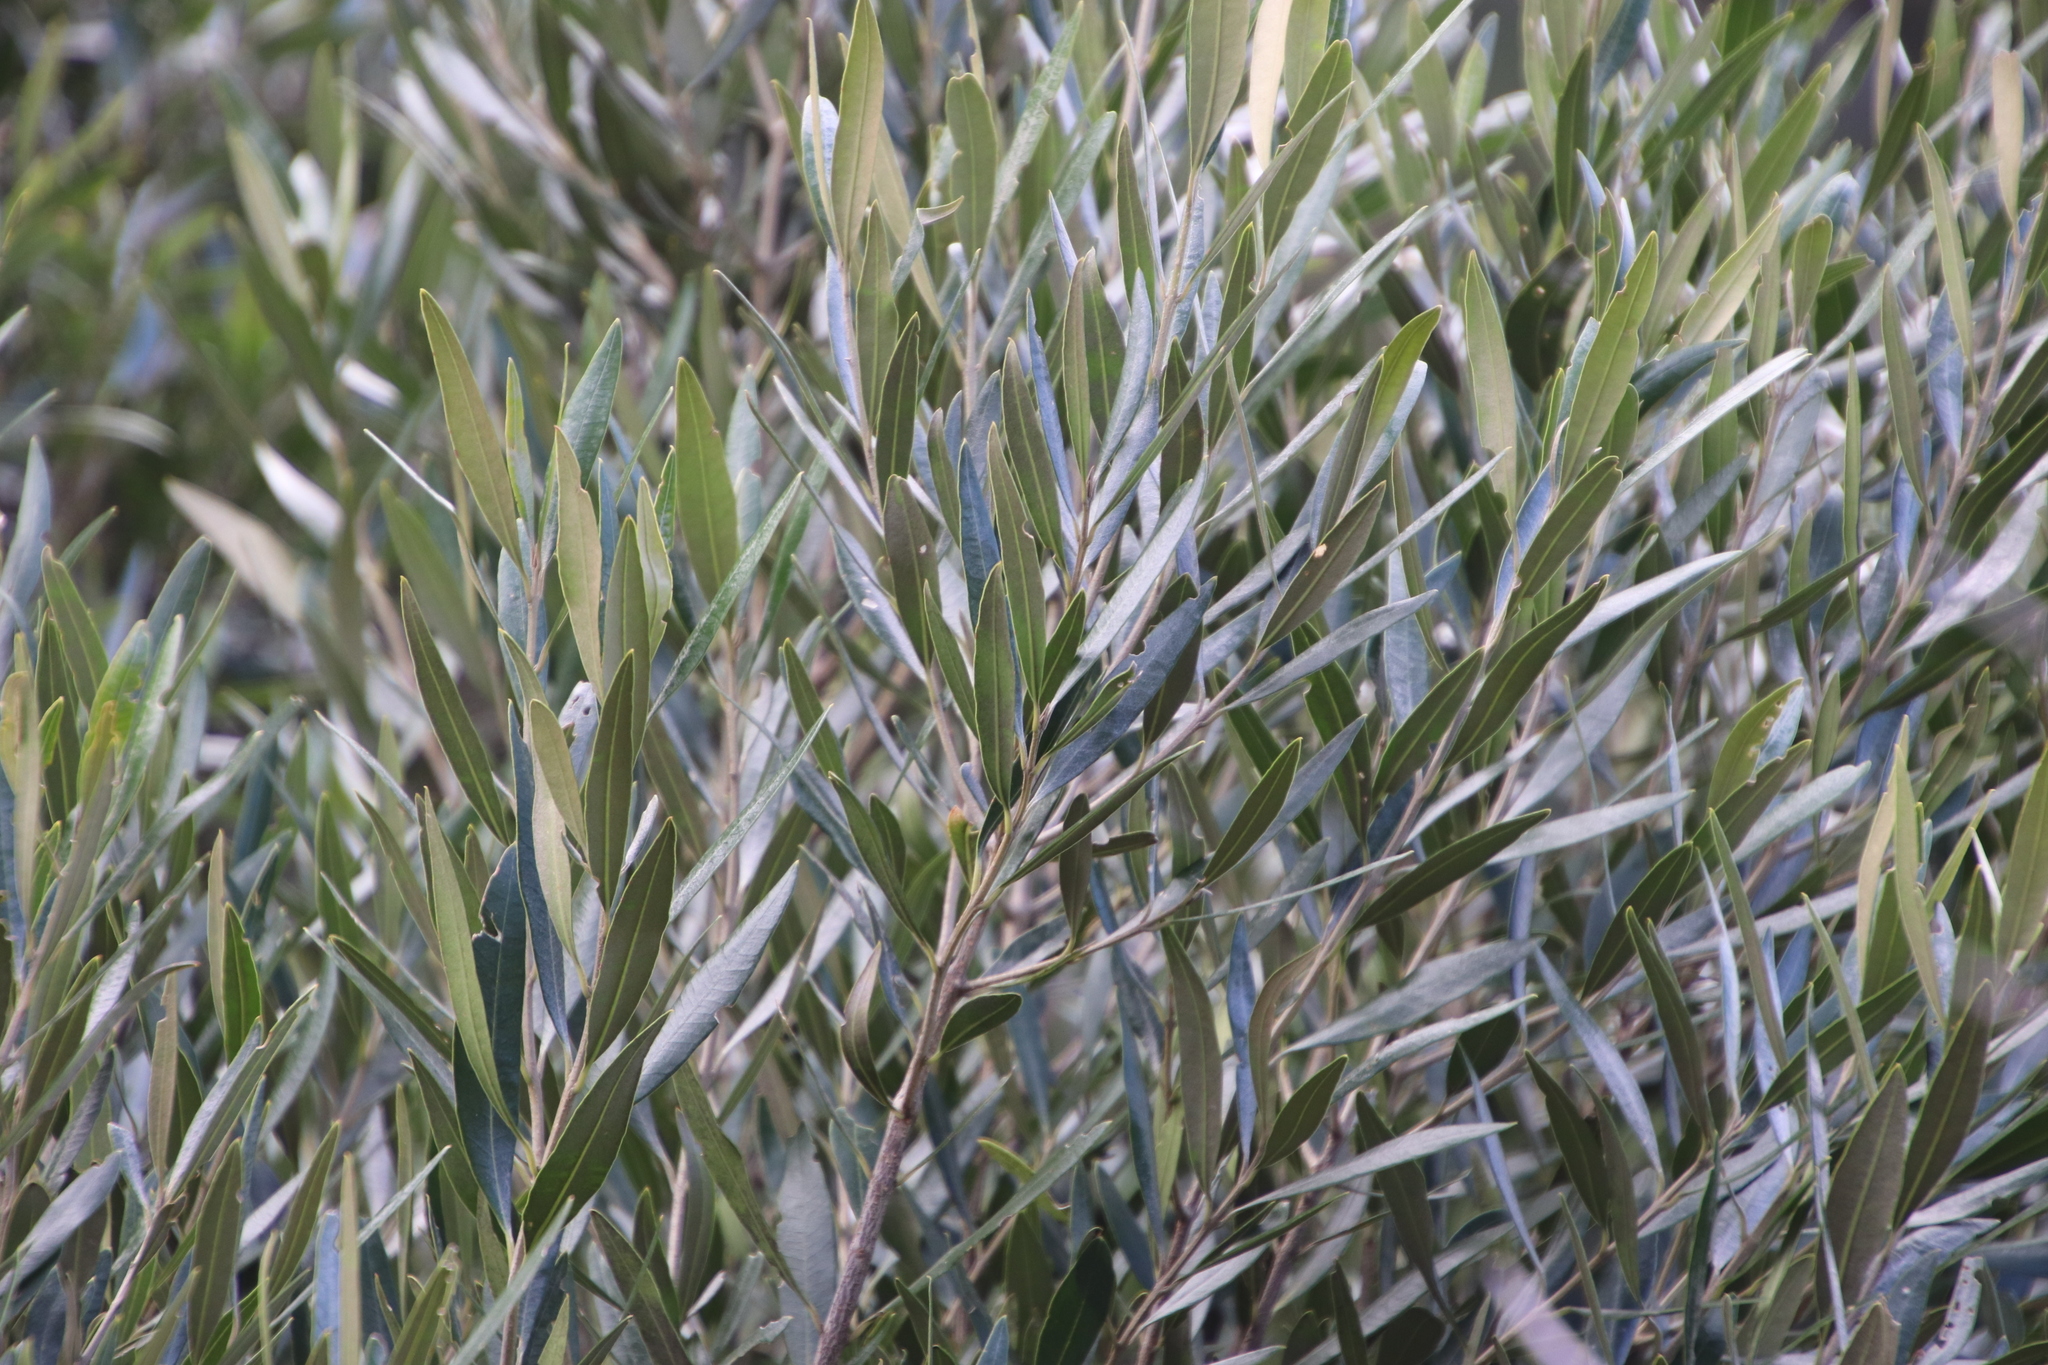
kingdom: Plantae
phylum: Tracheophyta
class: Magnoliopsida
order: Lamiales
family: Oleaceae
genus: Olea
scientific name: Olea europaea
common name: Olive
